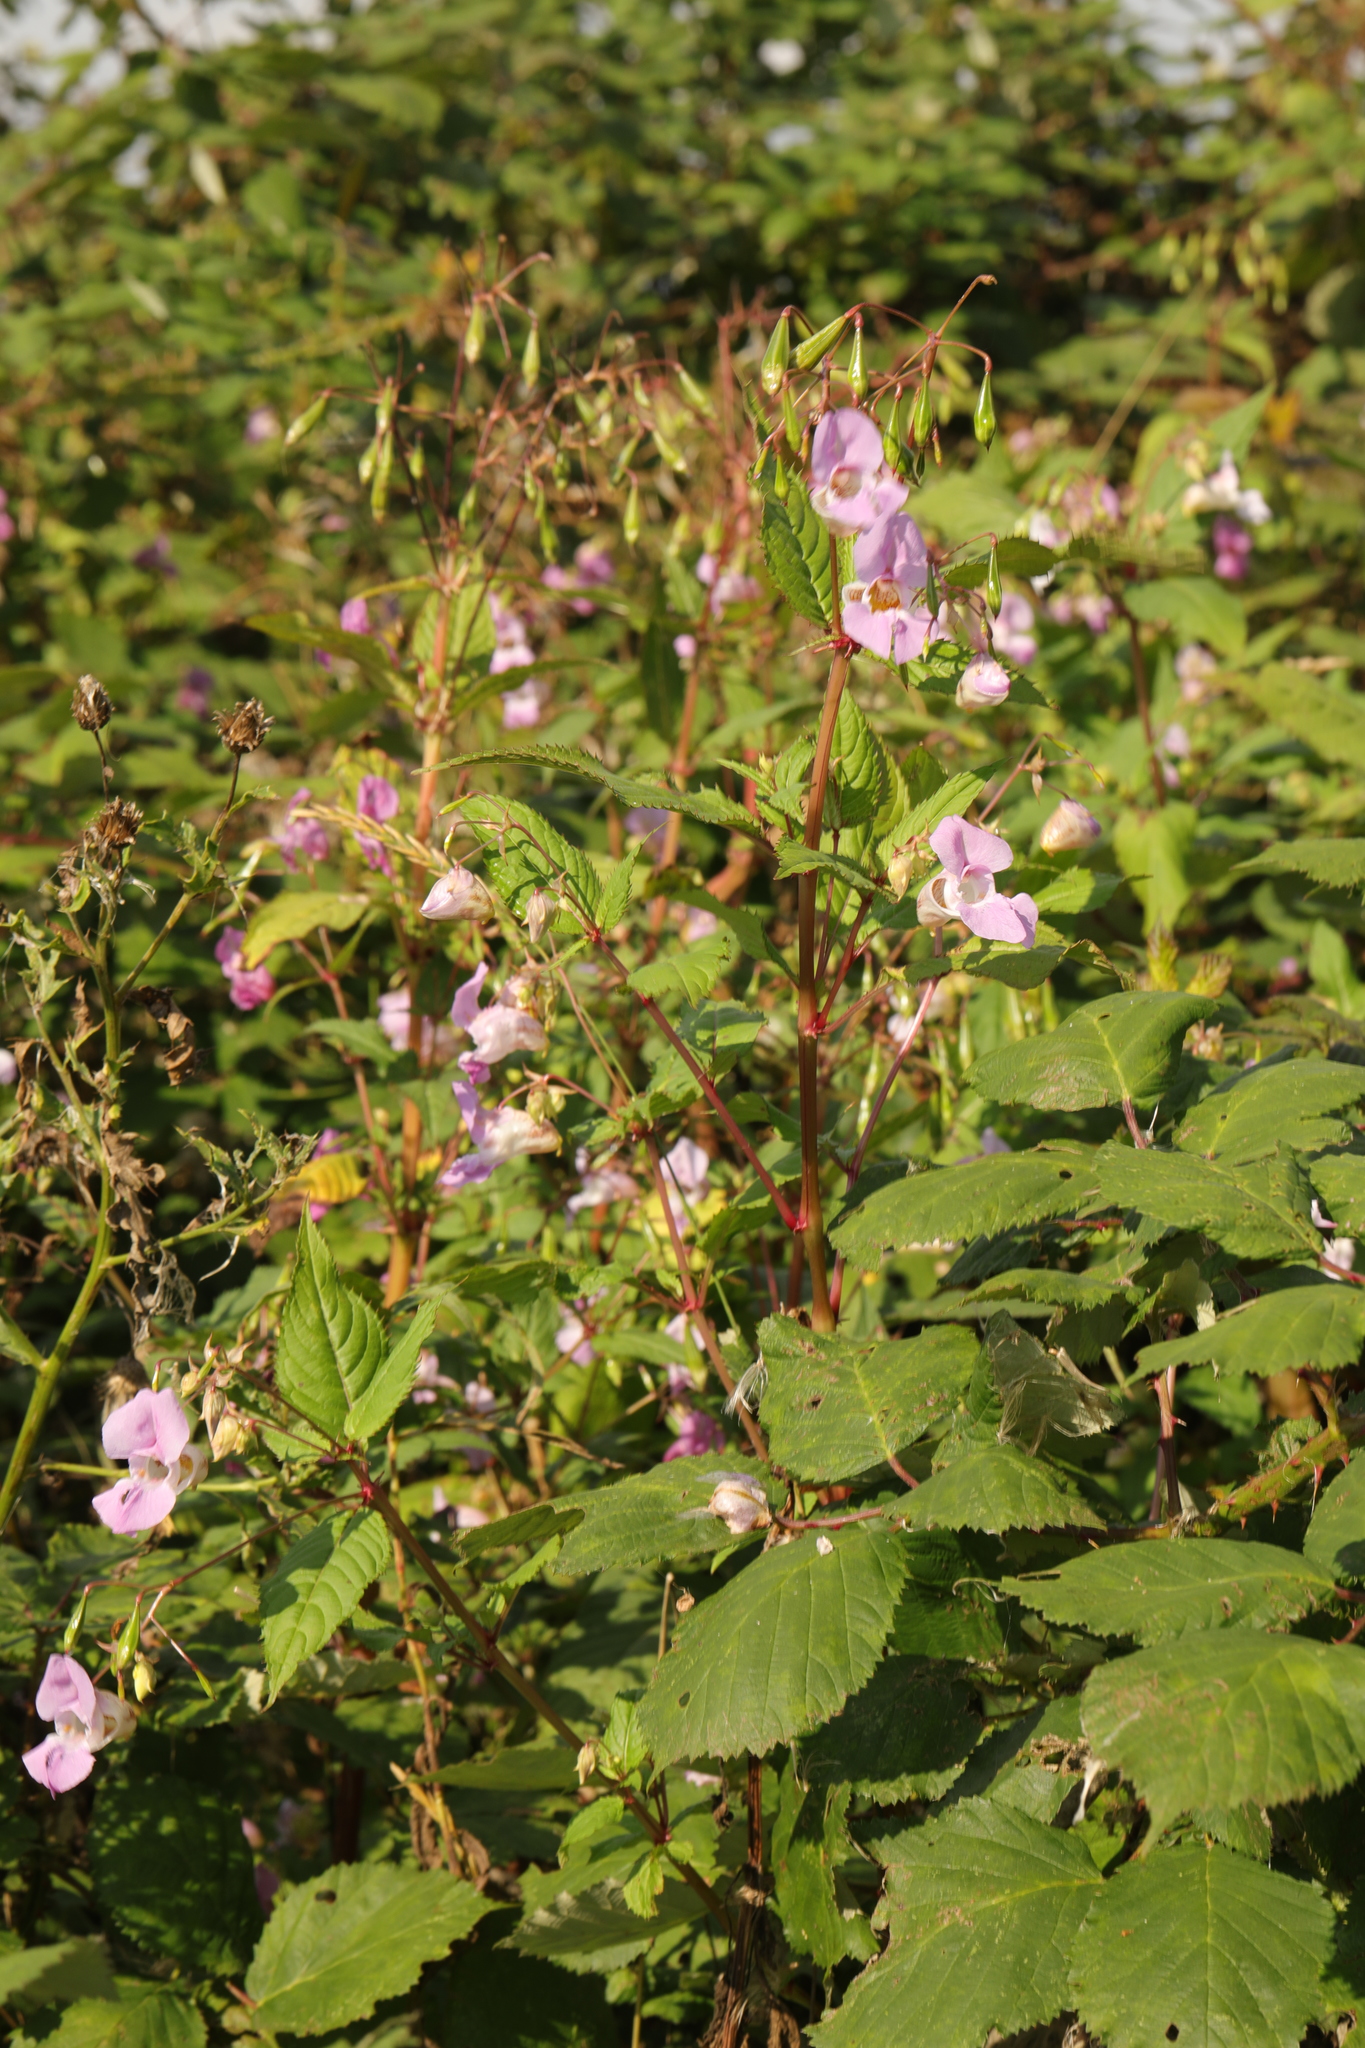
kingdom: Plantae
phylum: Tracheophyta
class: Magnoliopsida
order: Ericales
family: Balsaminaceae
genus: Impatiens
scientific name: Impatiens glandulifera
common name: Himalayan balsam
